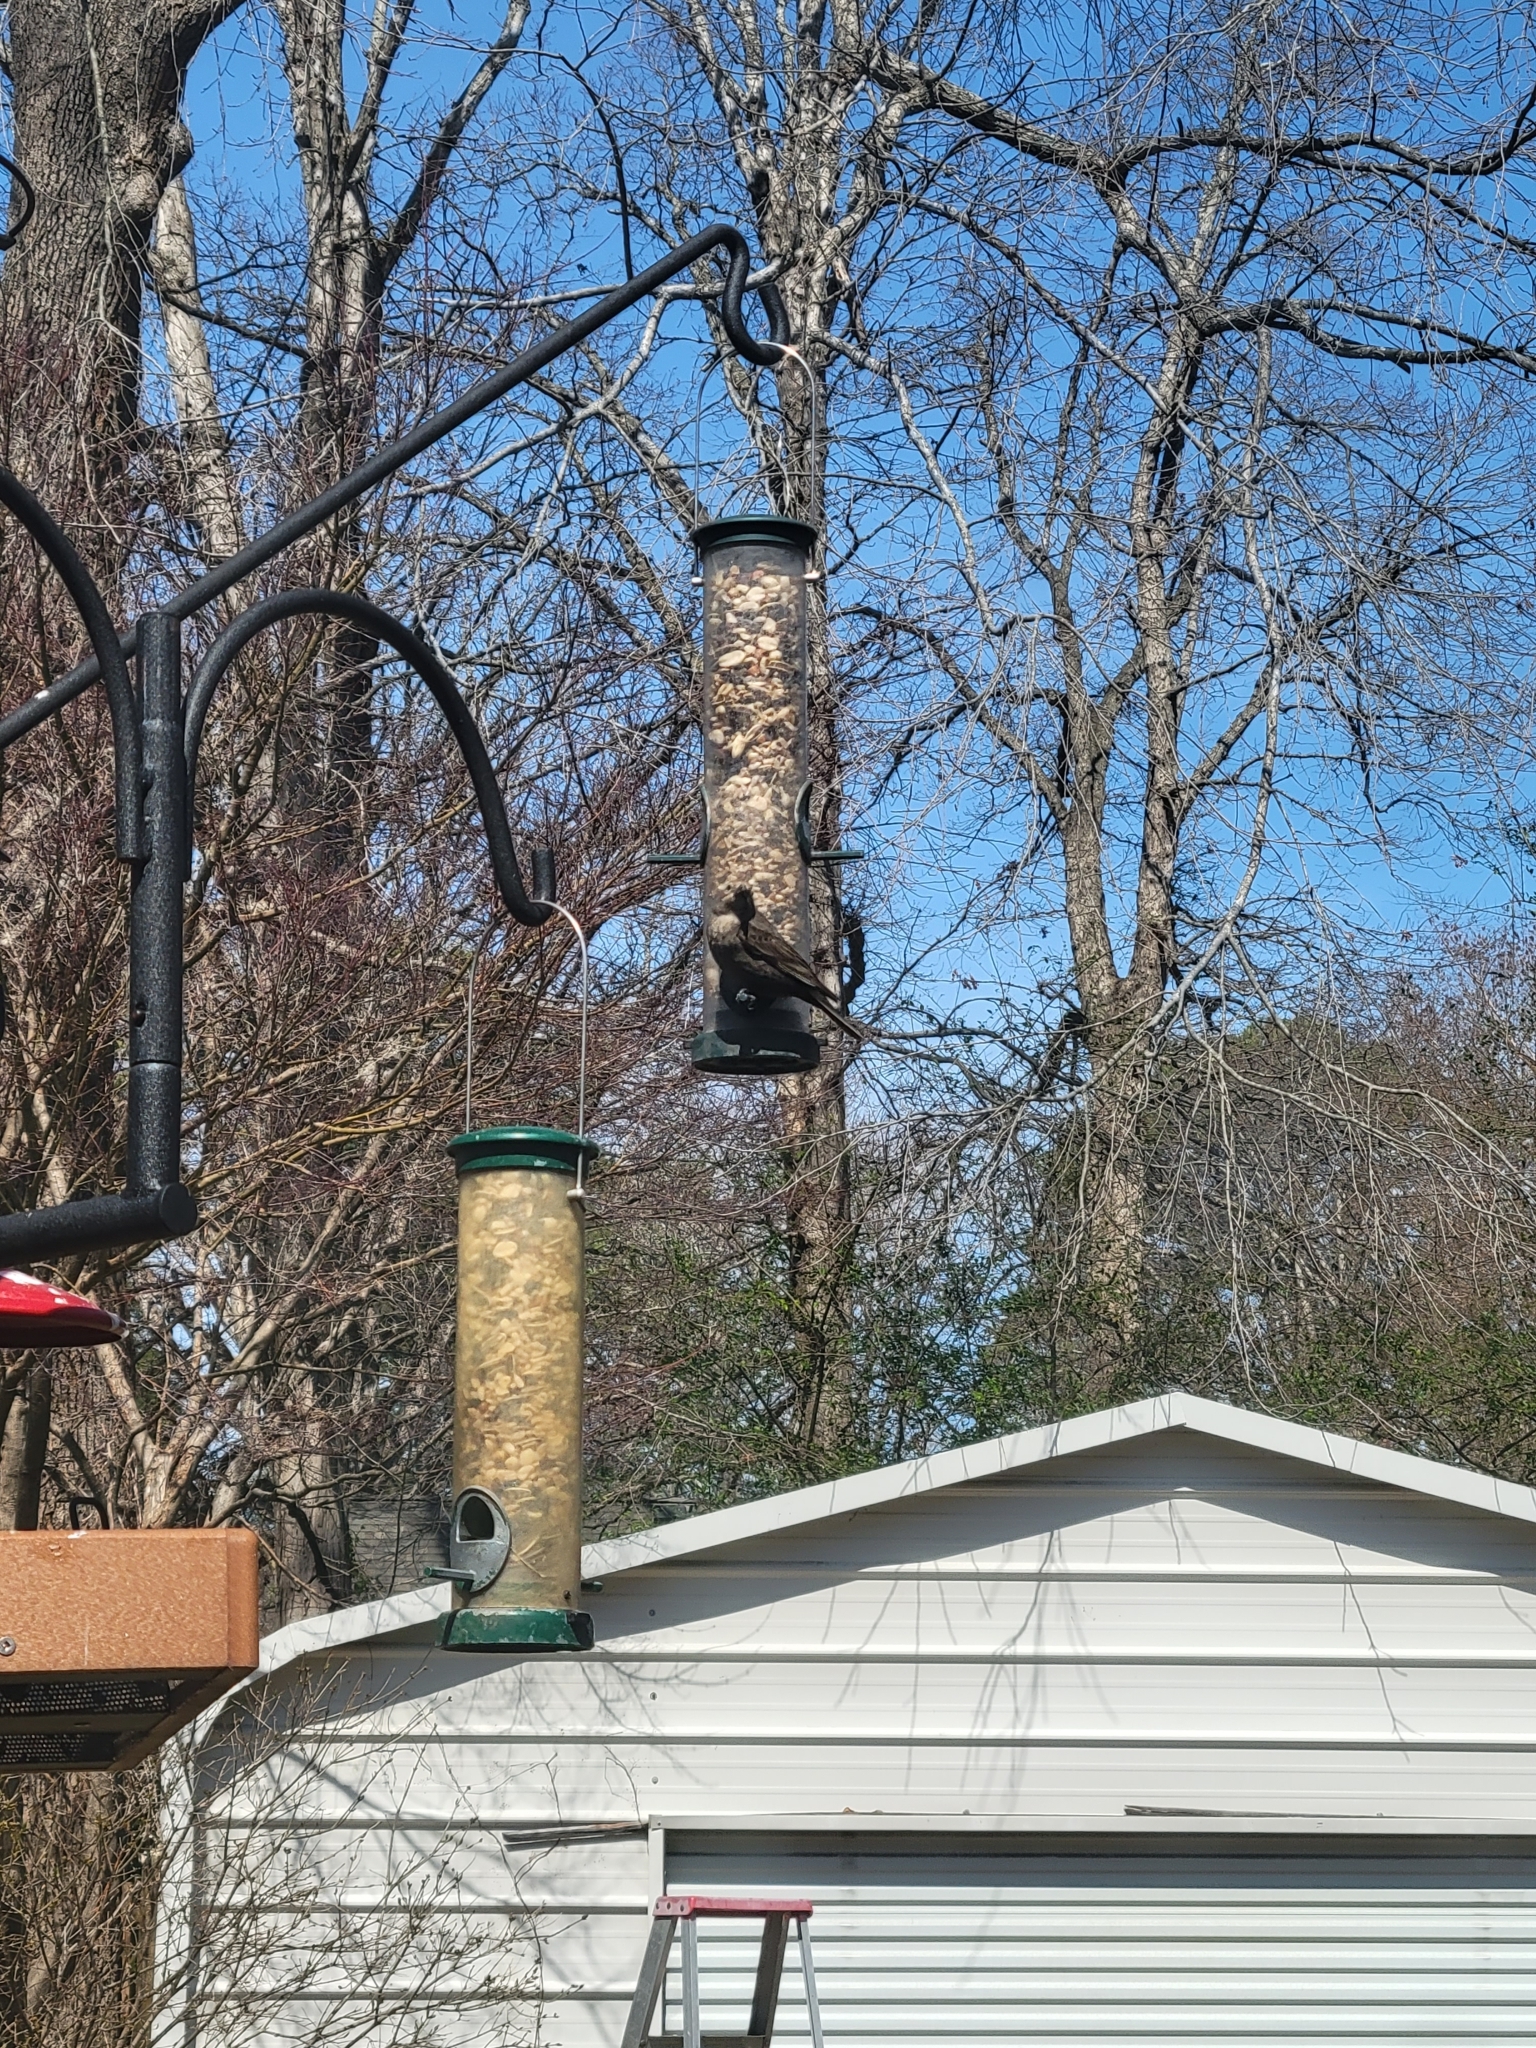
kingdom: Animalia
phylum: Chordata
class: Aves
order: Passeriformes
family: Icteridae
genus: Molothrus
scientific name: Molothrus ater
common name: Brown-headed cowbird
